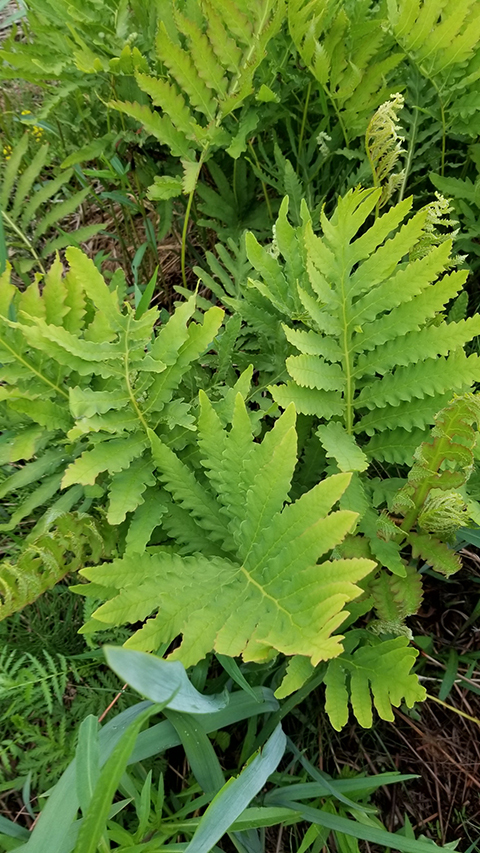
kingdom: Plantae
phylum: Tracheophyta
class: Polypodiopsida
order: Polypodiales
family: Onocleaceae
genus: Onoclea
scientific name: Onoclea sensibilis
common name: Sensitive fern
